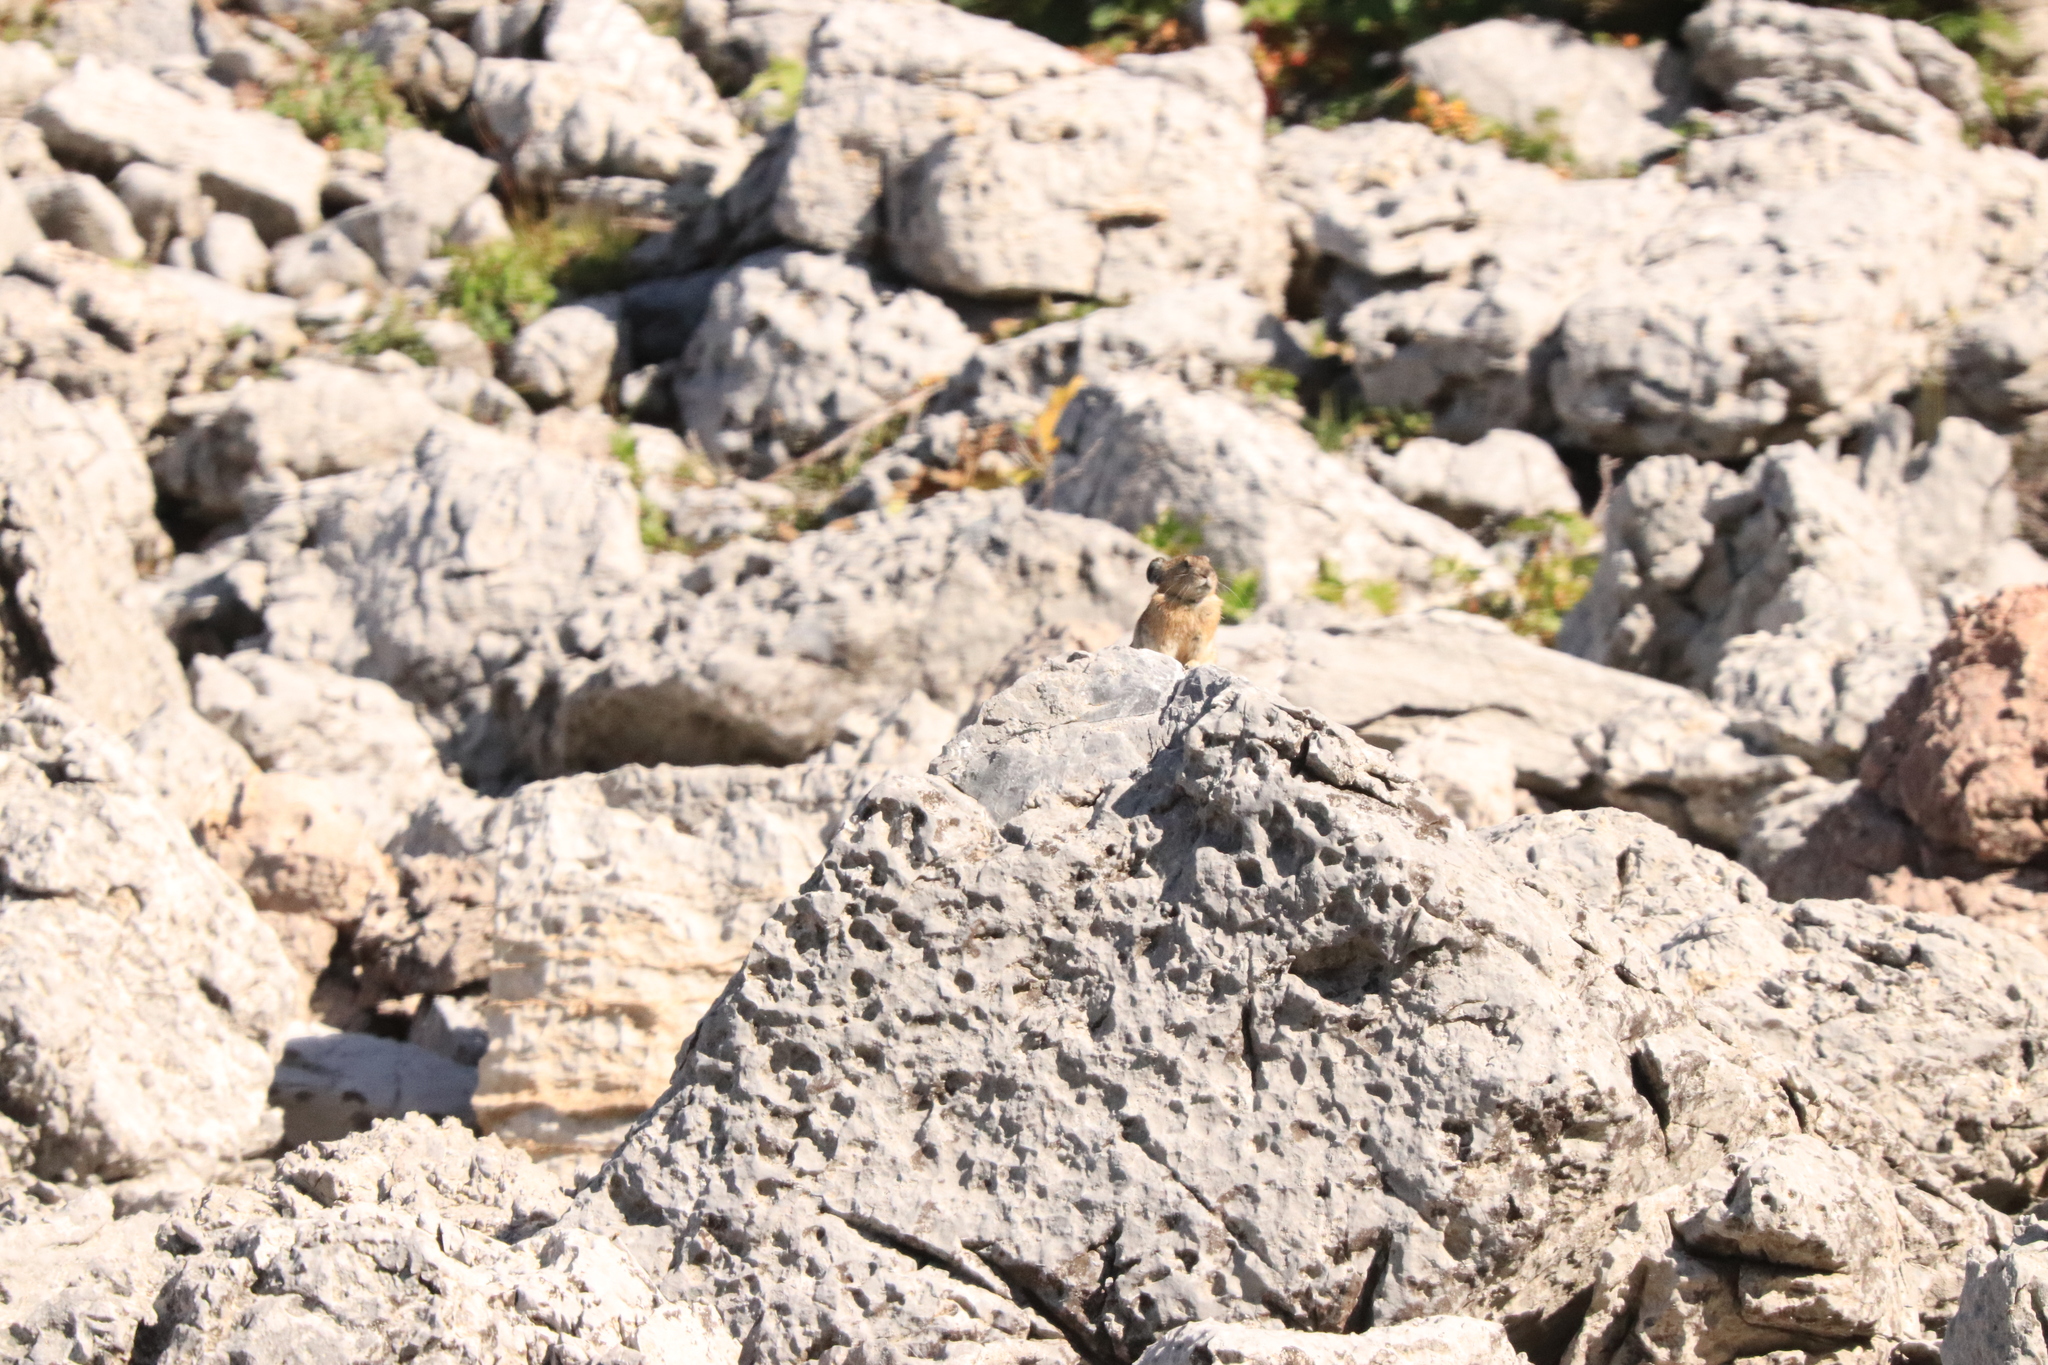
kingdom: Animalia
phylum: Chordata
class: Mammalia
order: Lagomorpha
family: Ochotonidae
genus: Ochotona
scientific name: Ochotona princeps
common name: American pika
